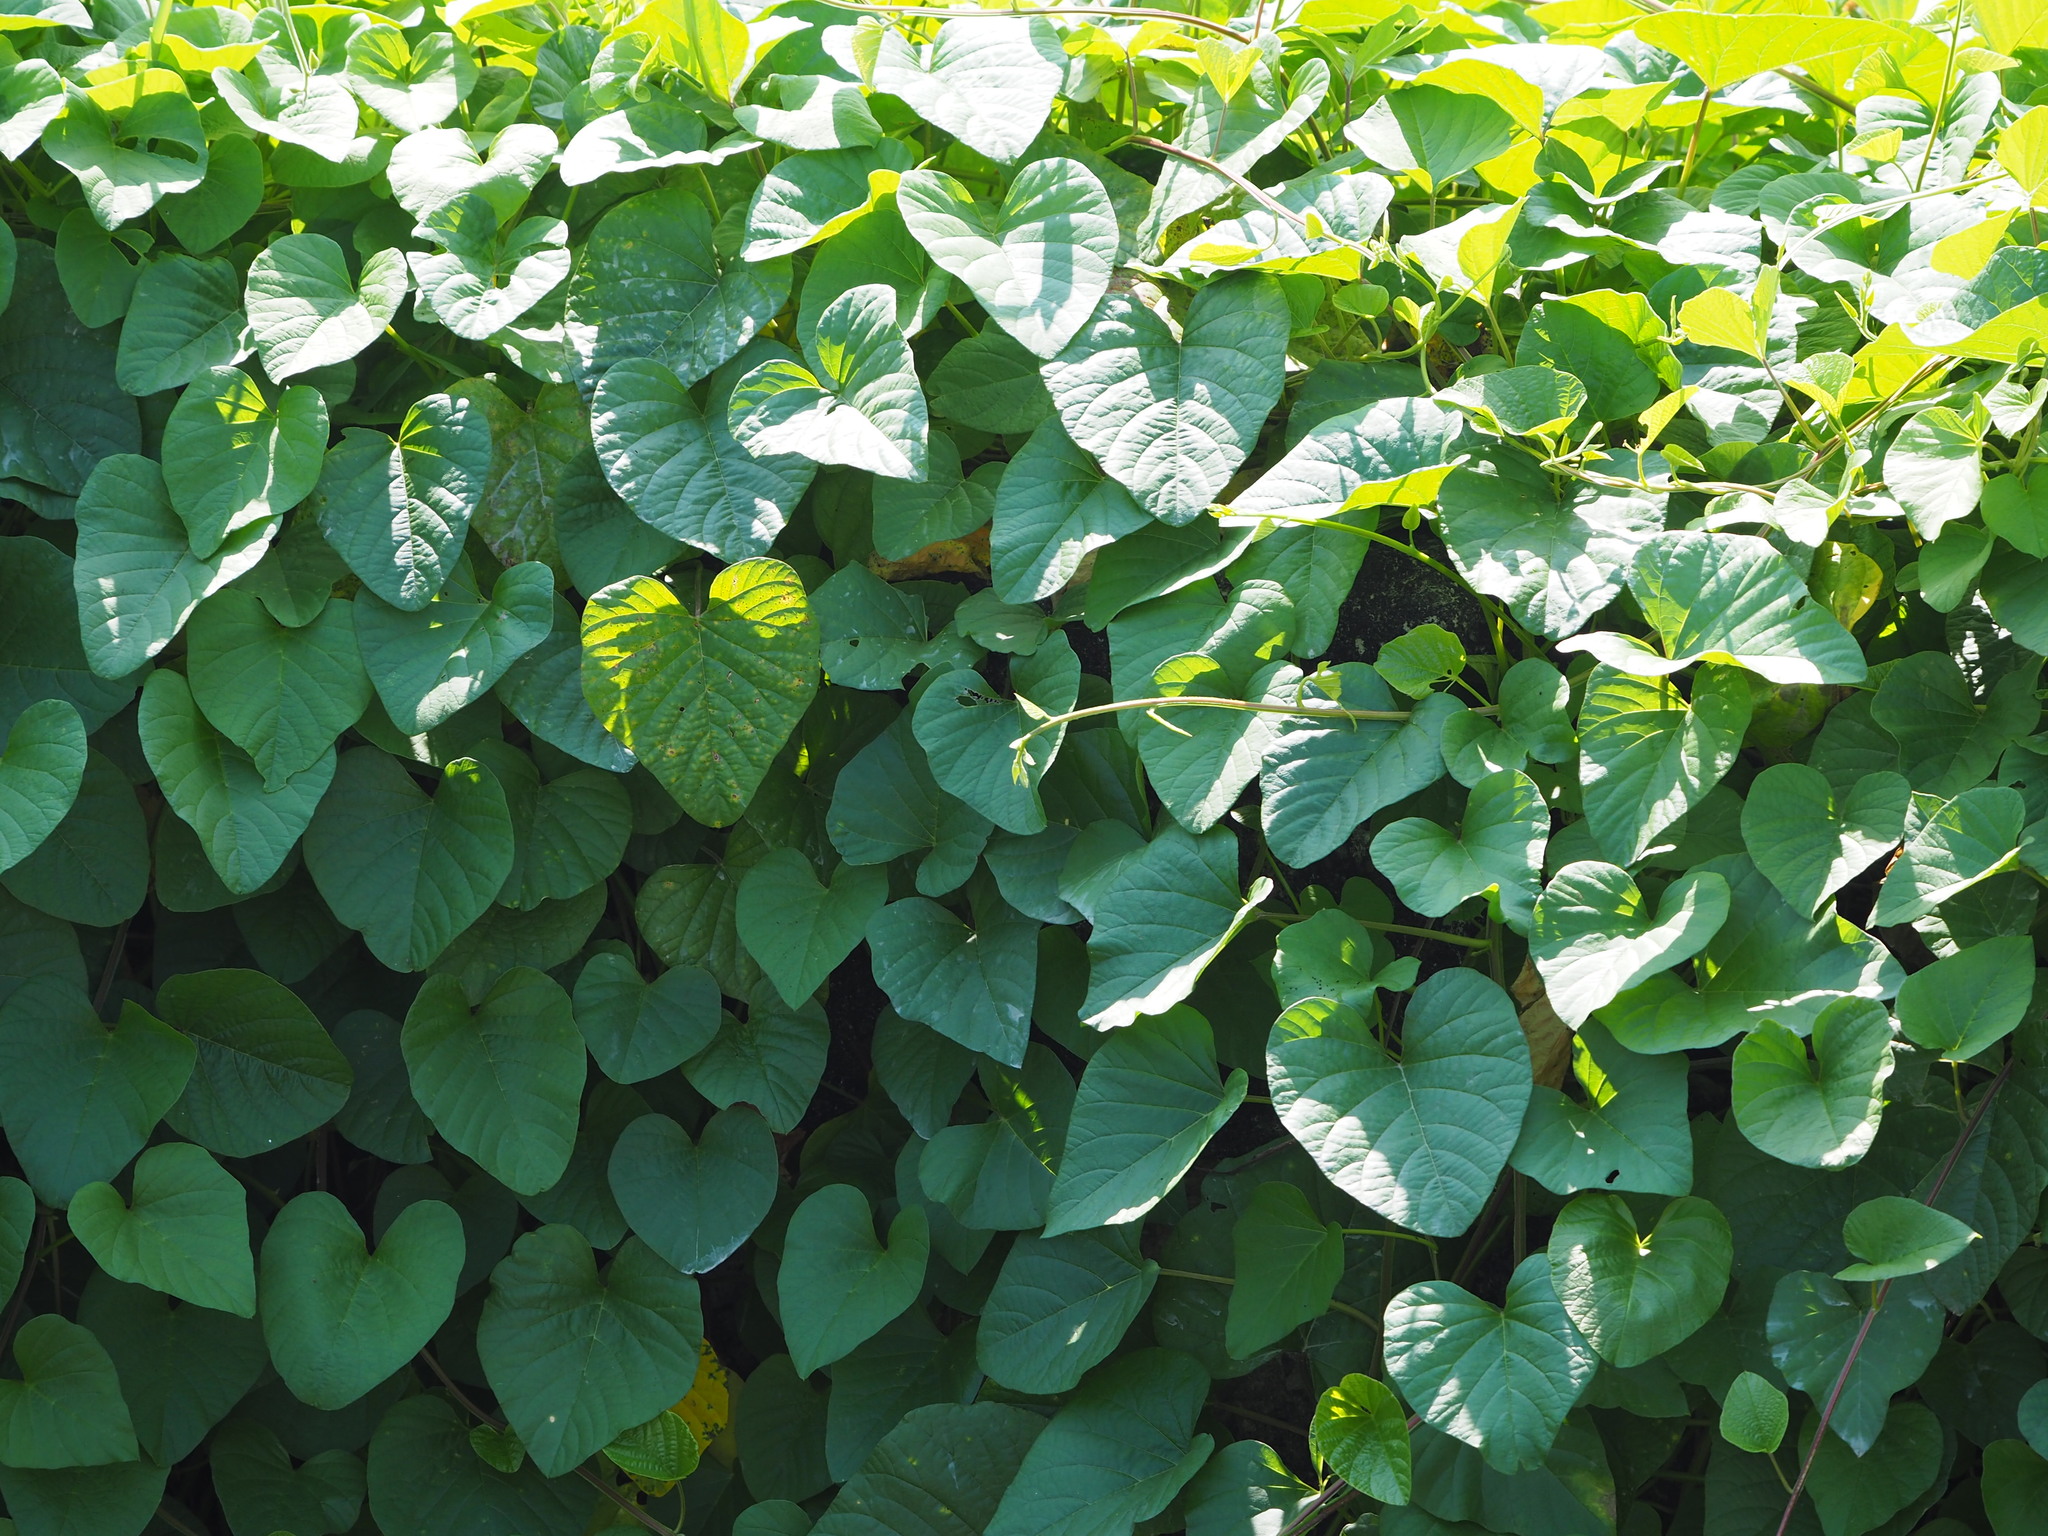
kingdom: Plantae
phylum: Tracheophyta
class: Magnoliopsida
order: Solanales
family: Convolvulaceae
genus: Operculina
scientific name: Operculina turpethum
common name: Transparent wood-rose
